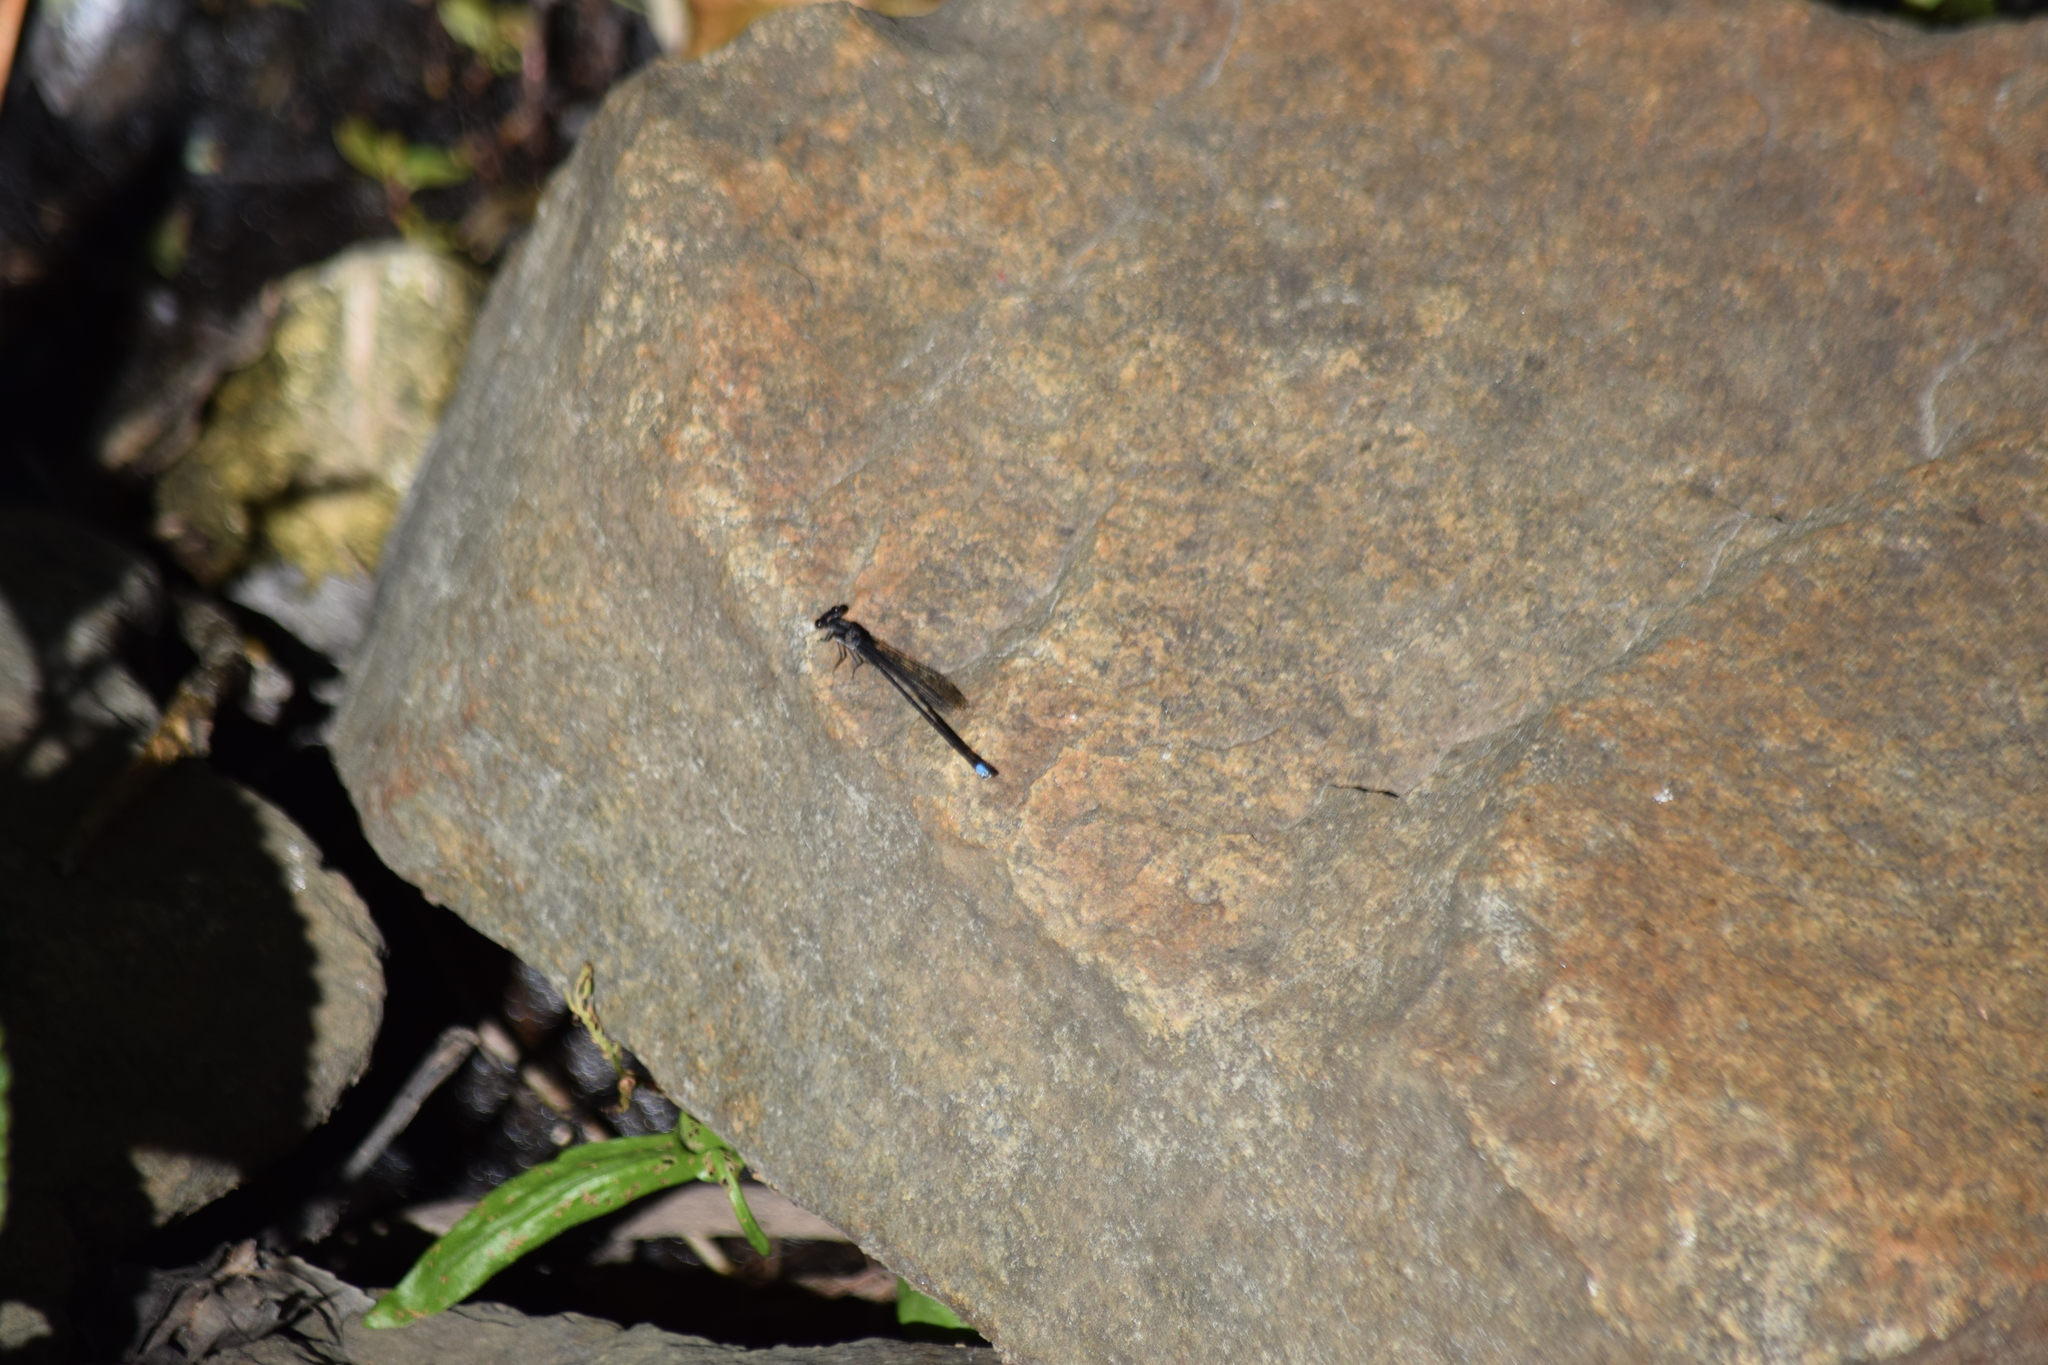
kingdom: Animalia
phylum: Arthropoda
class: Insecta
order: Odonata
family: Coenagrionidae
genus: Argia
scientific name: Argia tibialis
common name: Blue-tipped dancer
